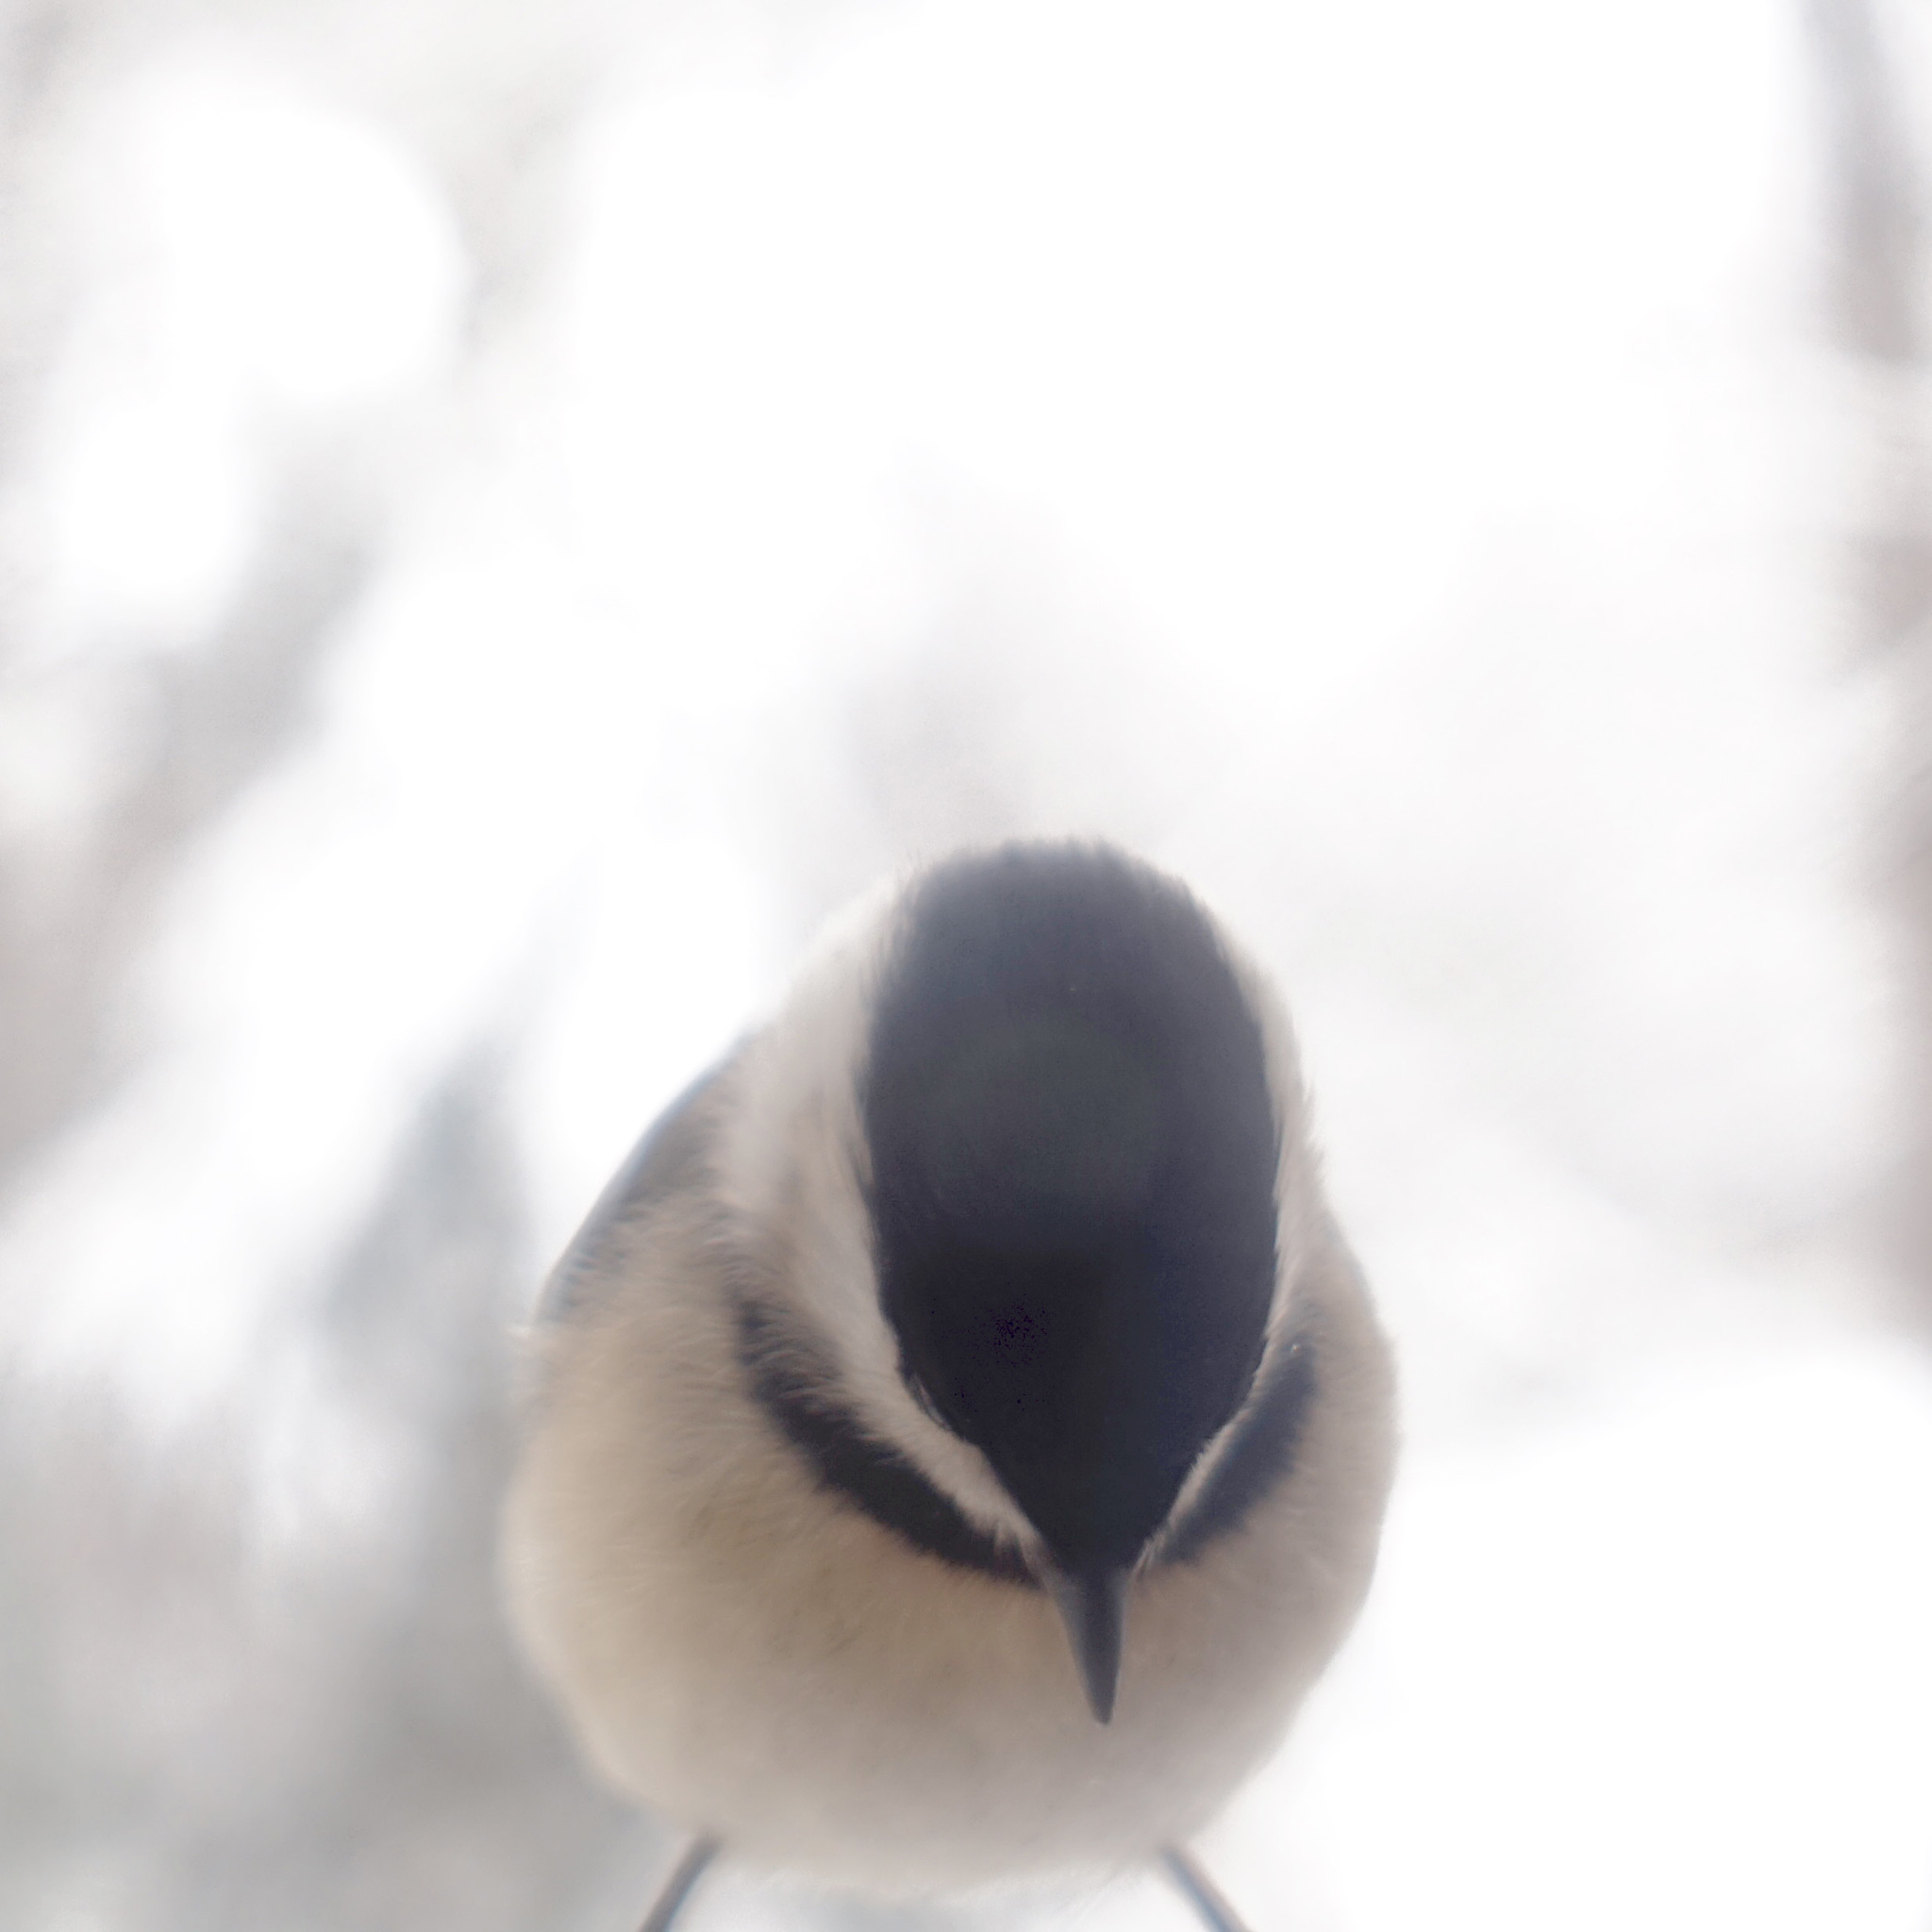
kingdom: Animalia
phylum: Chordata
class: Aves
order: Passeriformes
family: Paridae
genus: Poecile
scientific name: Poecile carolinensis
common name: Carolina chickadee
